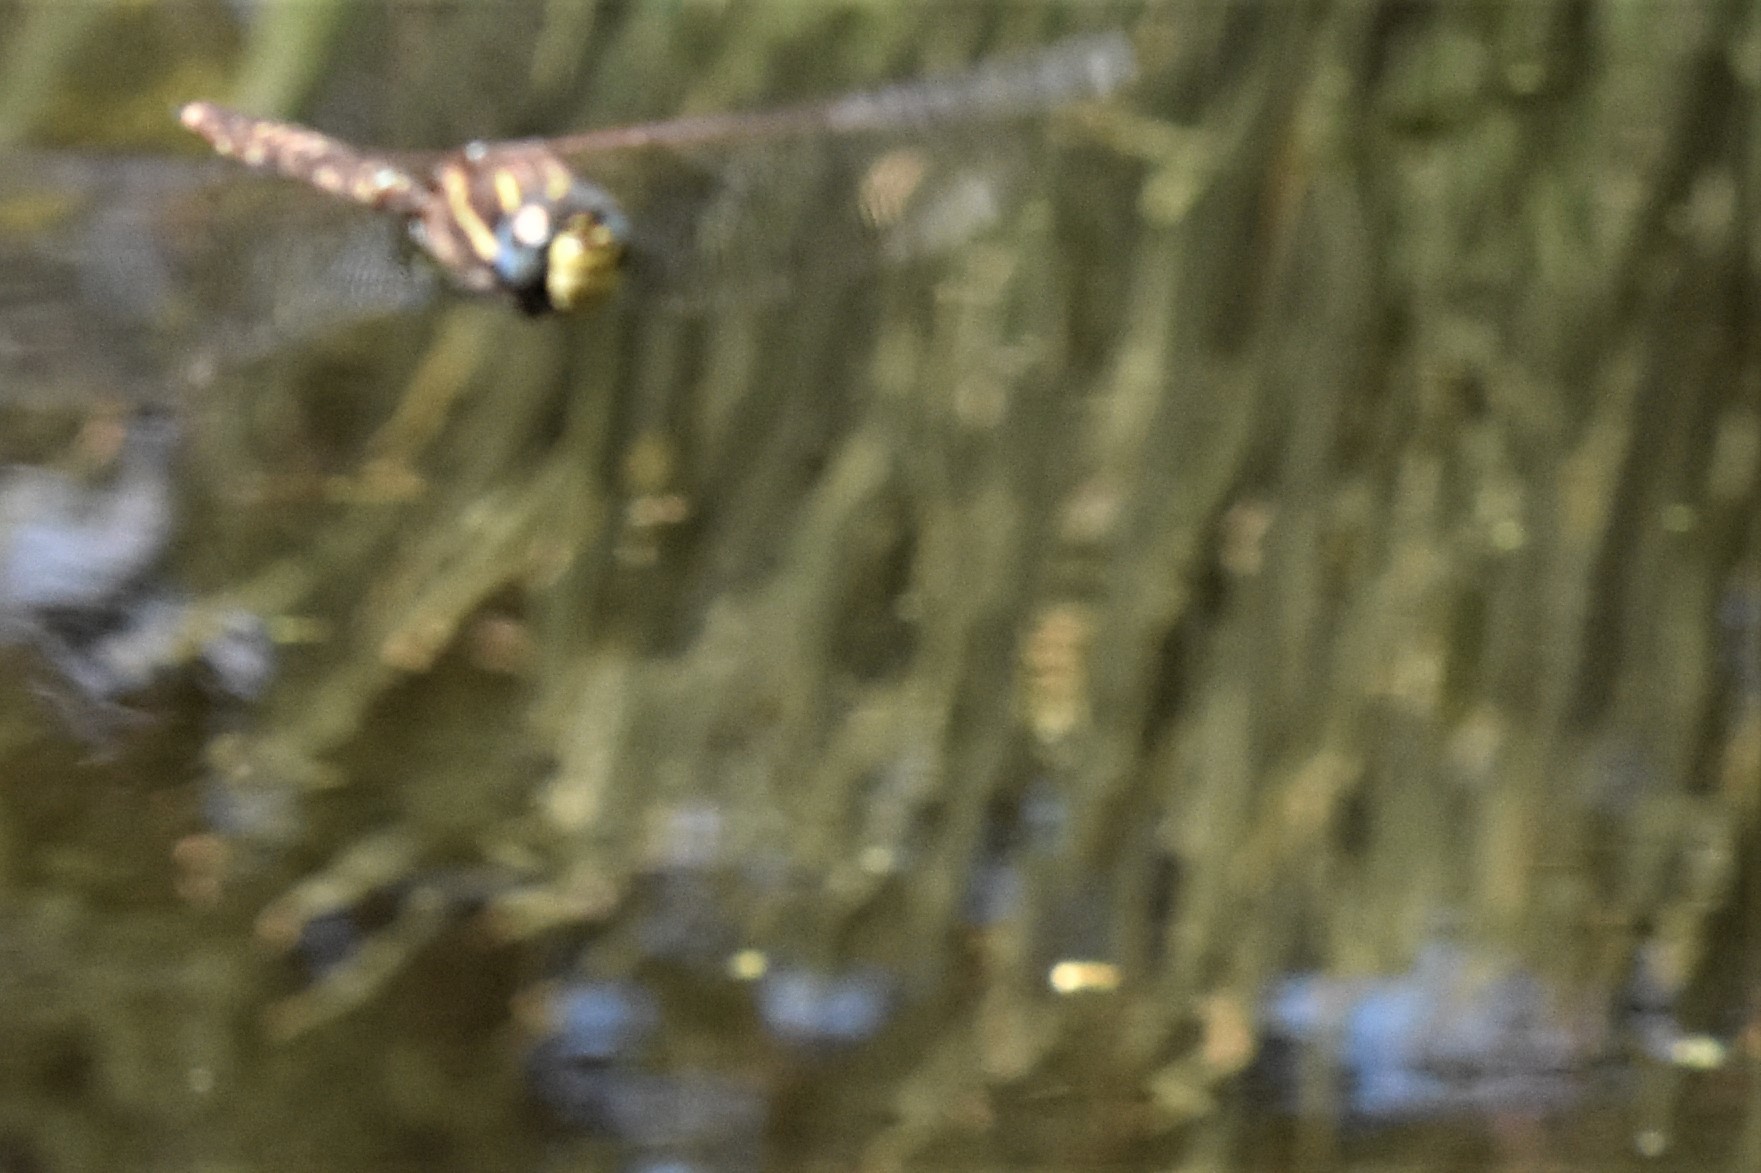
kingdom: Animalia
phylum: Arthropoda
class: Insecta
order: Odonata
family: Aeshnidae
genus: Aeshna
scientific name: Aeshna brevistyla
